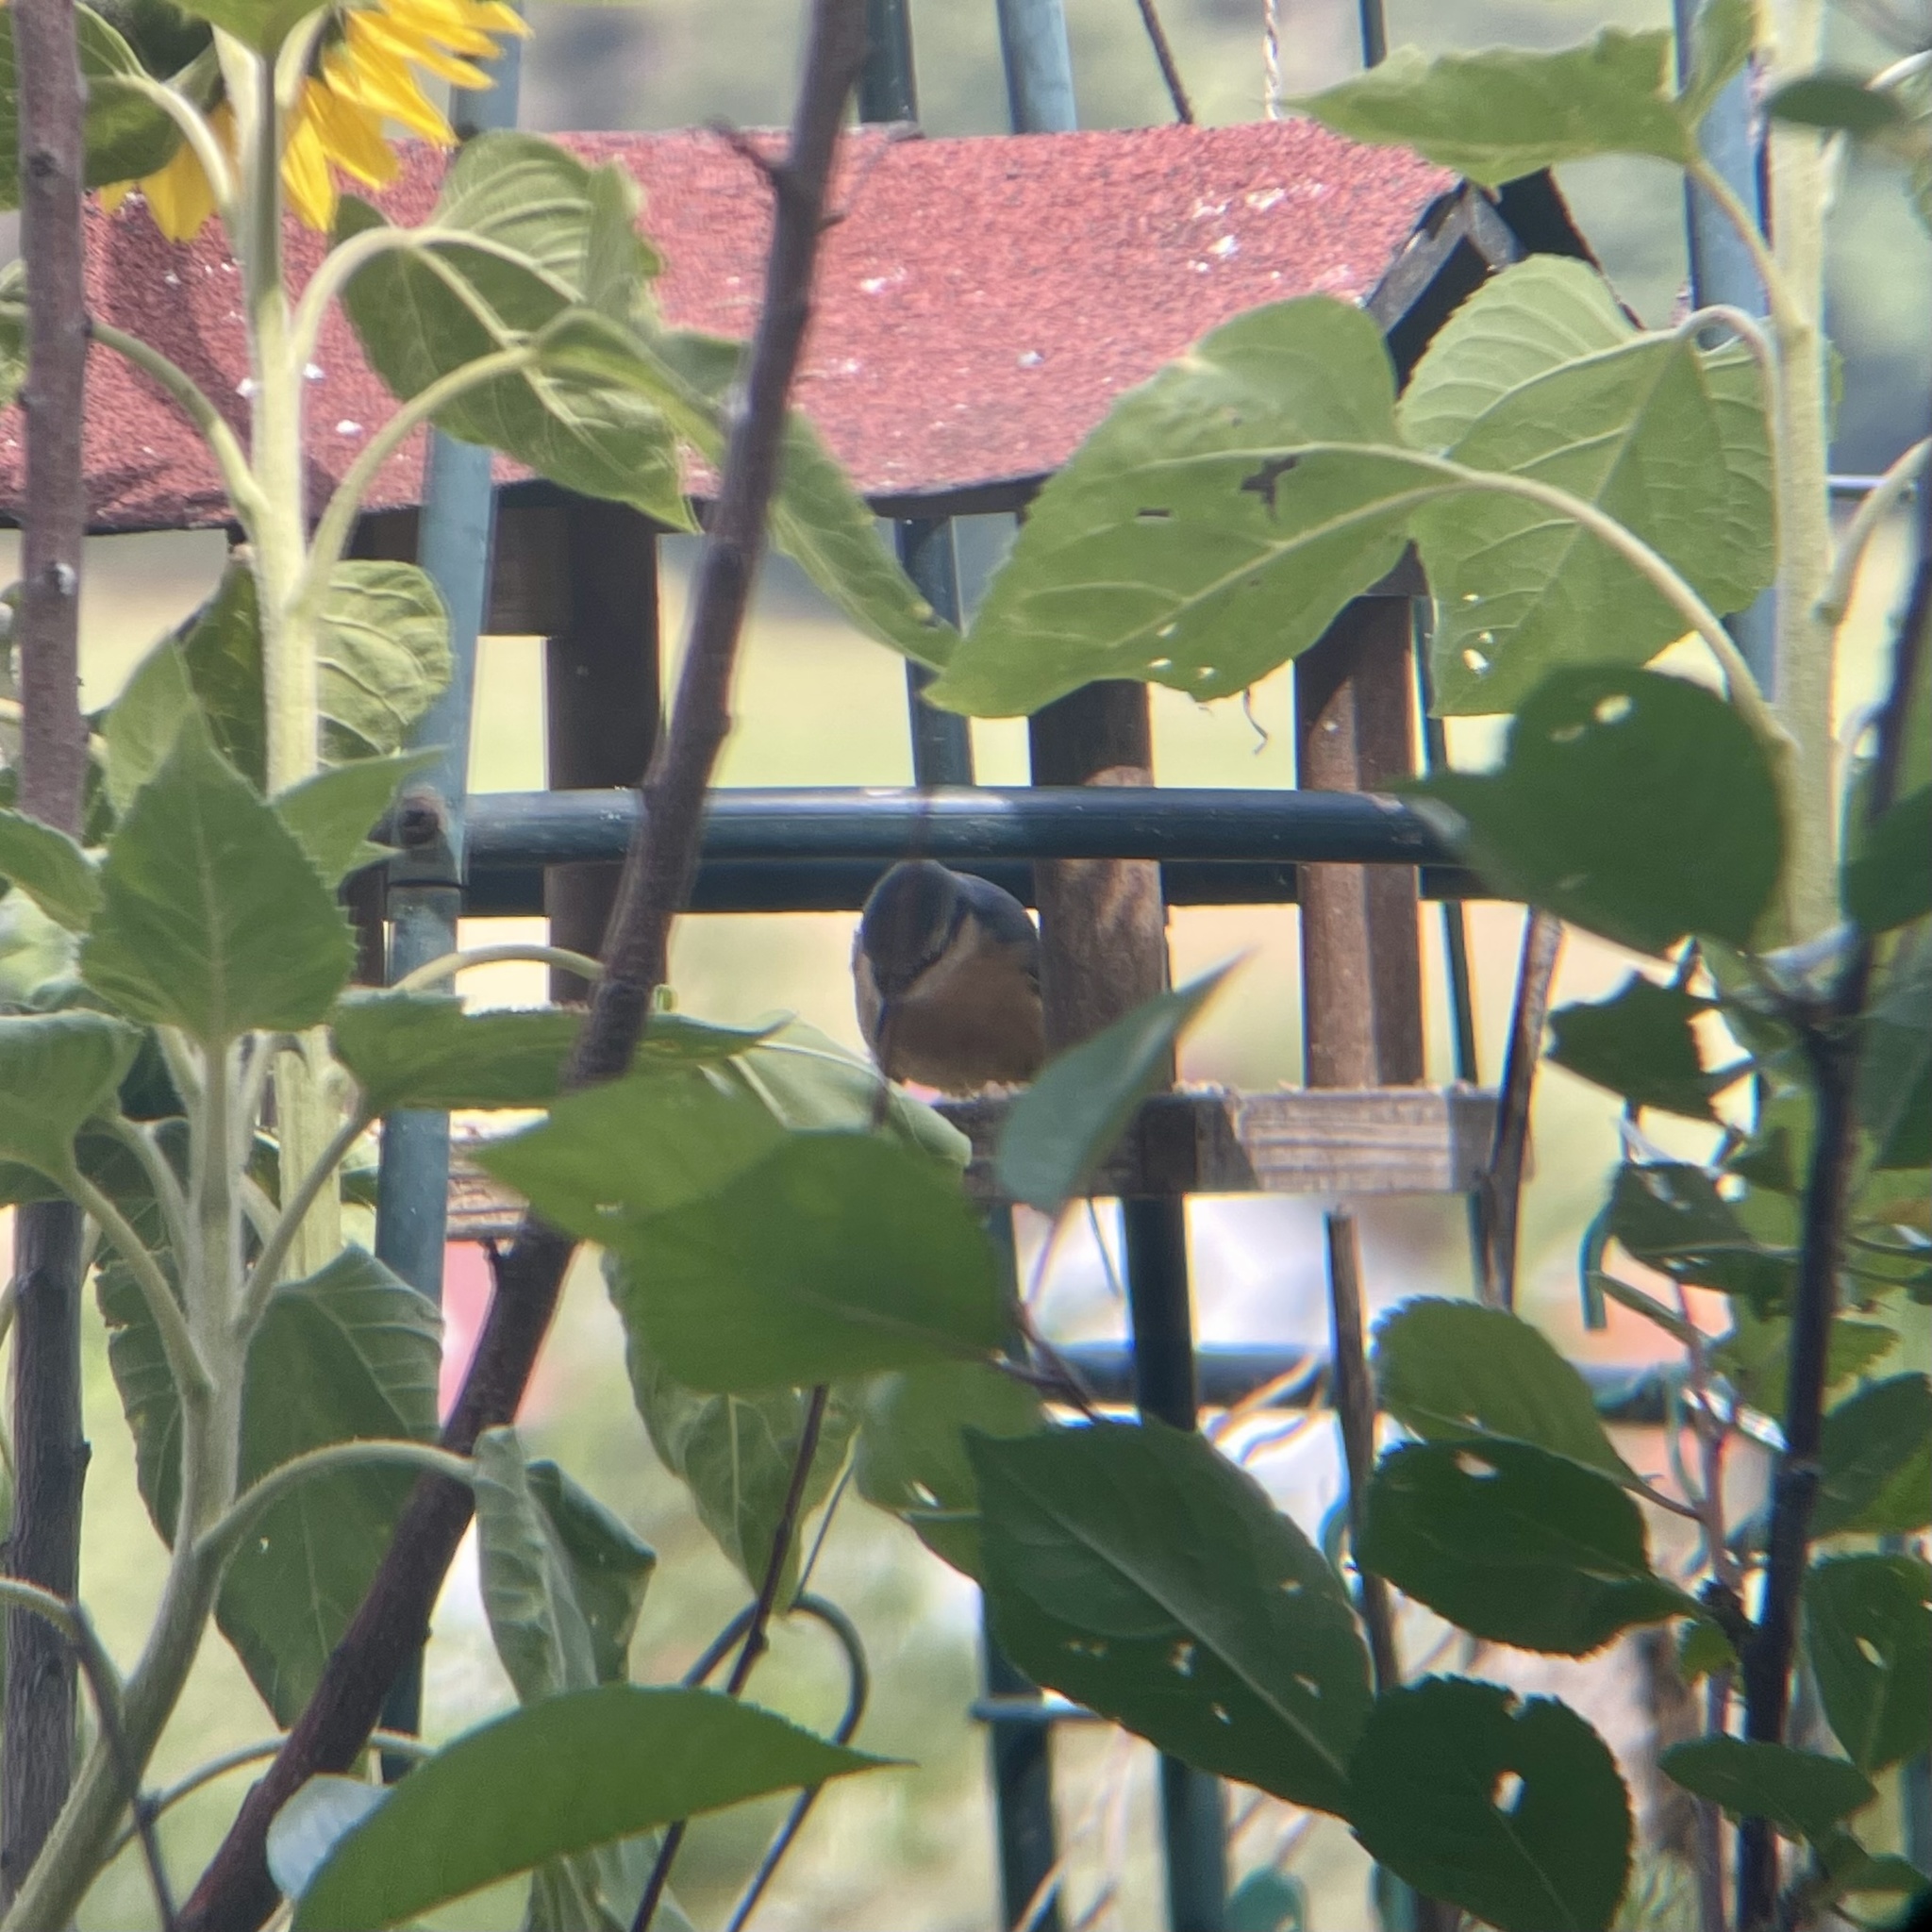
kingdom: Animalia
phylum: Chordata
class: Aves
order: Passeriformes
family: Sittidae
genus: Sitta
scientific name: Sitta europaea
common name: Eurasian nuthatch
